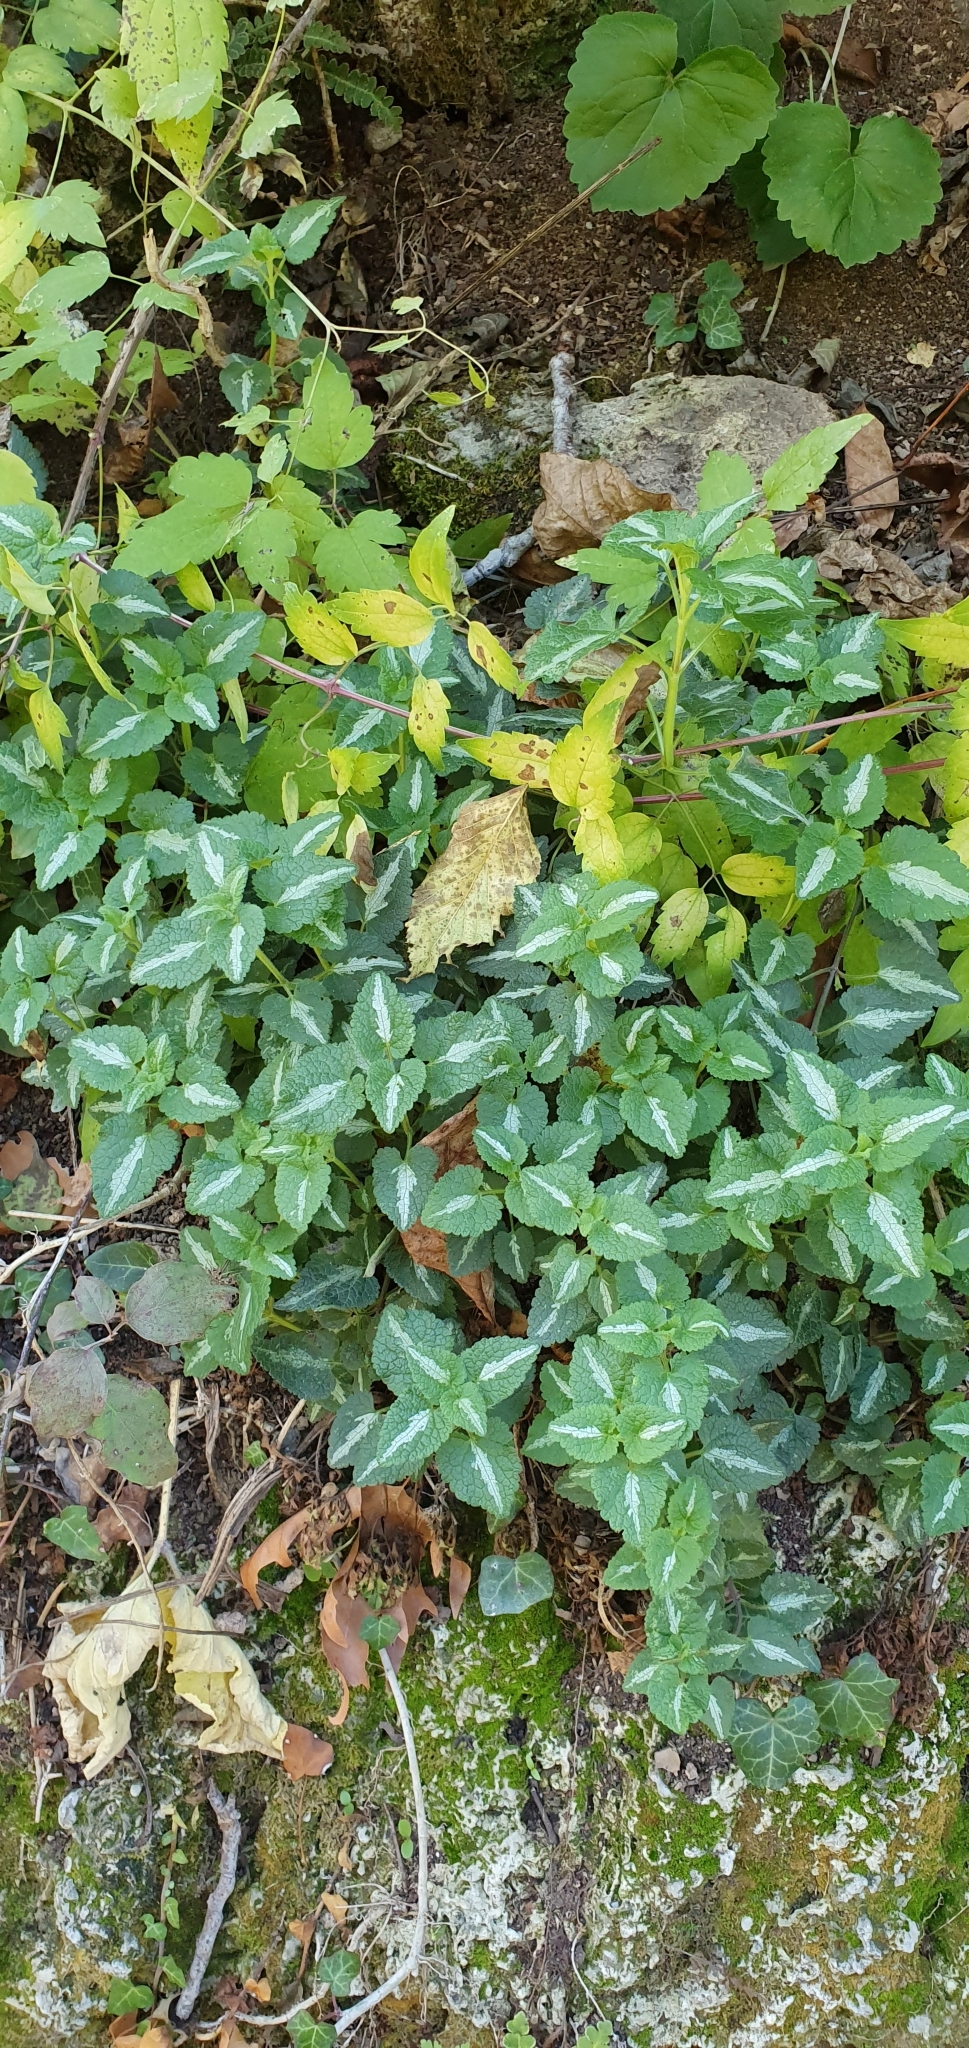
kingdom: Plantae
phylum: Tracheophyta
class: Magnoliopsida
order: Lamiales
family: Lamiaceae
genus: Lamium
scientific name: Lamium maculatum
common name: Spotted dead-nettle
